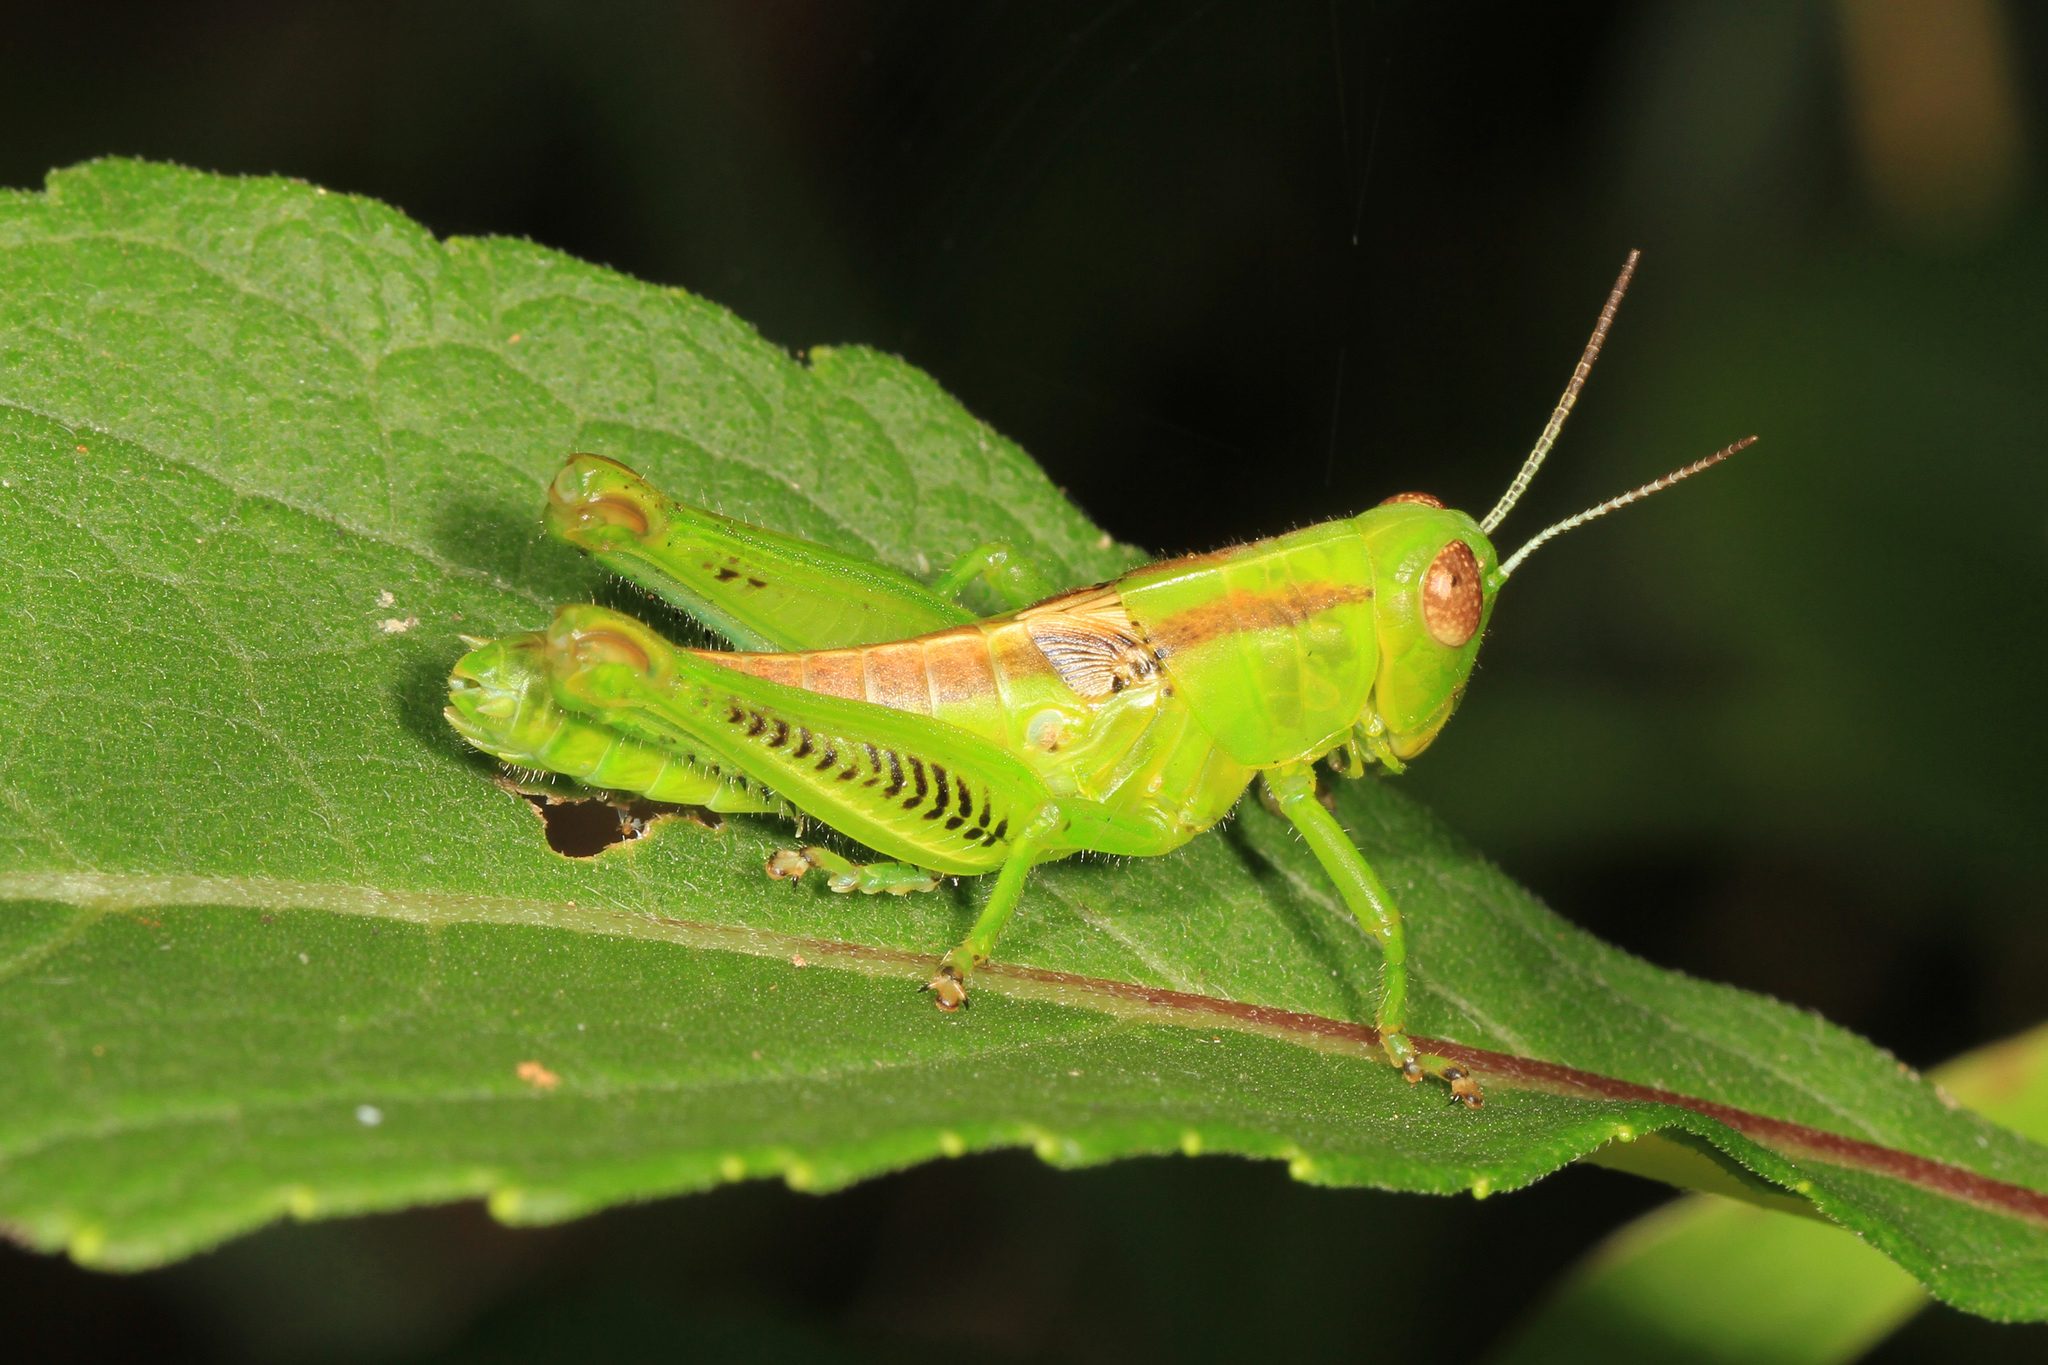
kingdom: Animalia
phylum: Arthropoda
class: Insecta
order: Orthoptera
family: Acrididae
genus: Melanoplus
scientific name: Melanoplus differentialis
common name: Differential grasshopper
